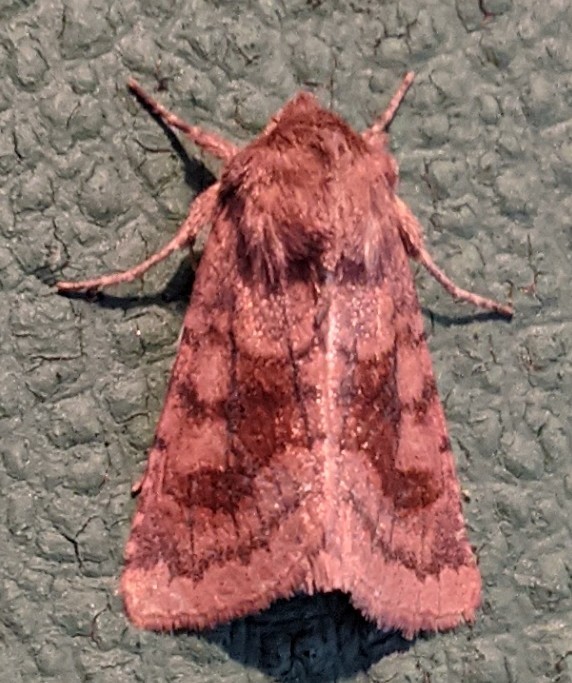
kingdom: Animalia
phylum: Arthropoda
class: Insecta
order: Lepidoptera
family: Noctuidae
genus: Nephelodes
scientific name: Nephelodes minians
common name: Bronzed cutworm
